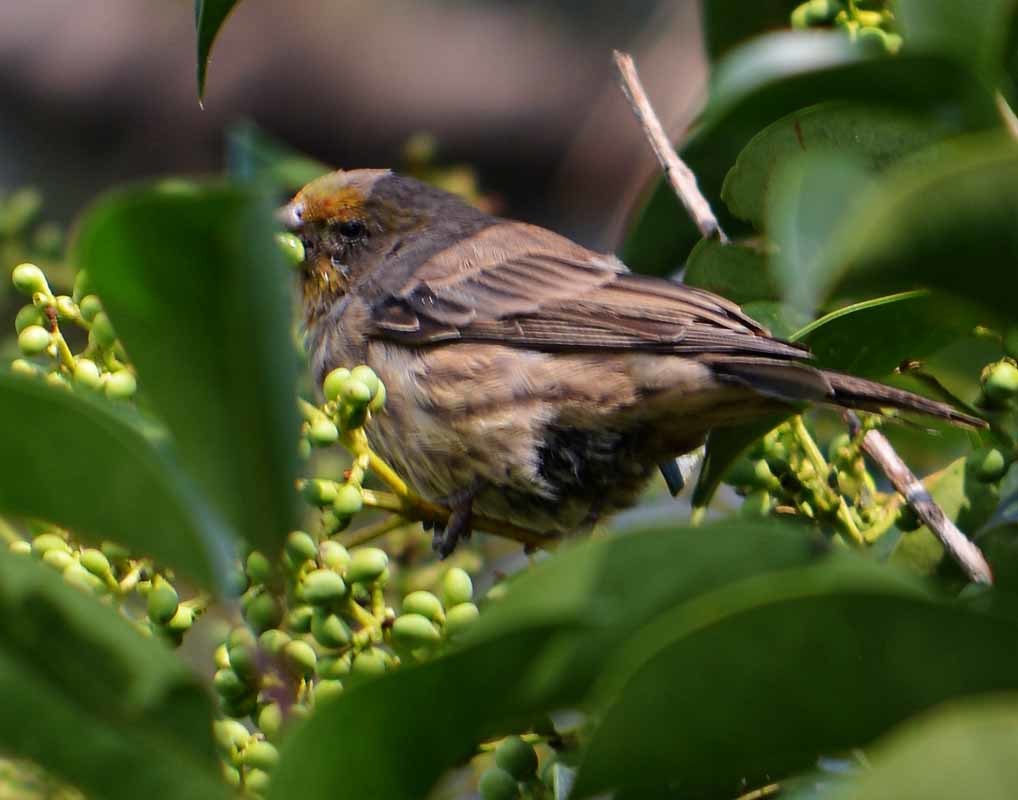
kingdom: Animalia
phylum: Chordata
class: Aves
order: Passeriformes
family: Fringillidae
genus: Haemorhous
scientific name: Haemorhous mexicanus
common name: House finch
